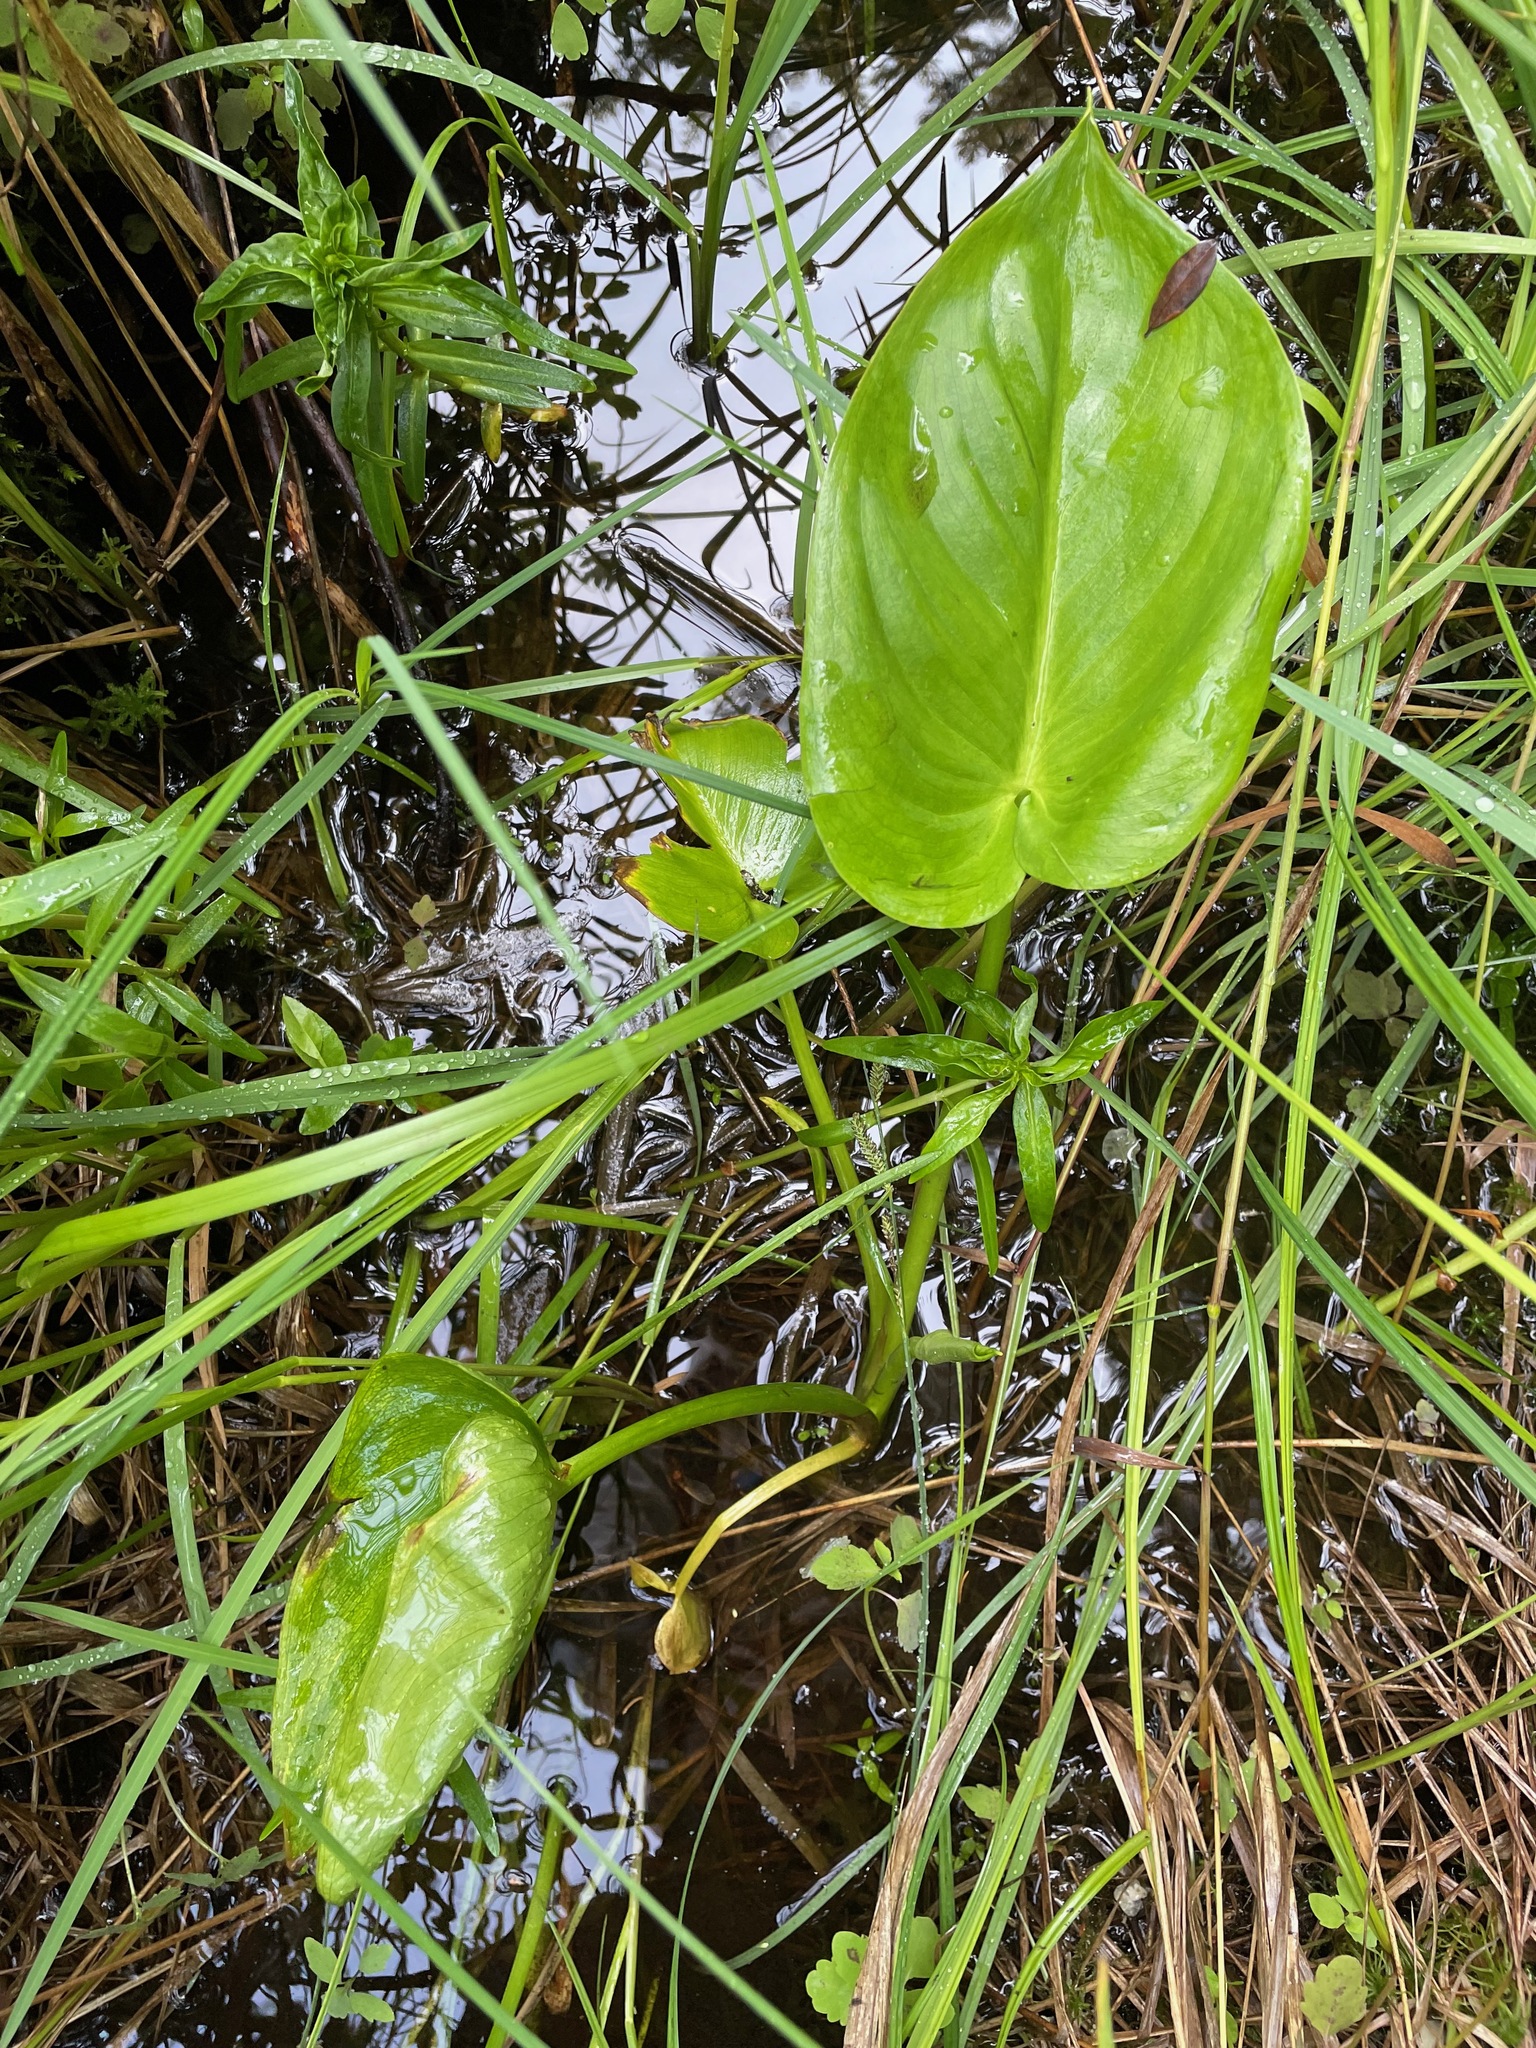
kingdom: Plantae
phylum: Tracheophyta
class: Liliopsida
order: Alismatales
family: Araceae
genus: Calla
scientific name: Calla palustris
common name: Bog arum
